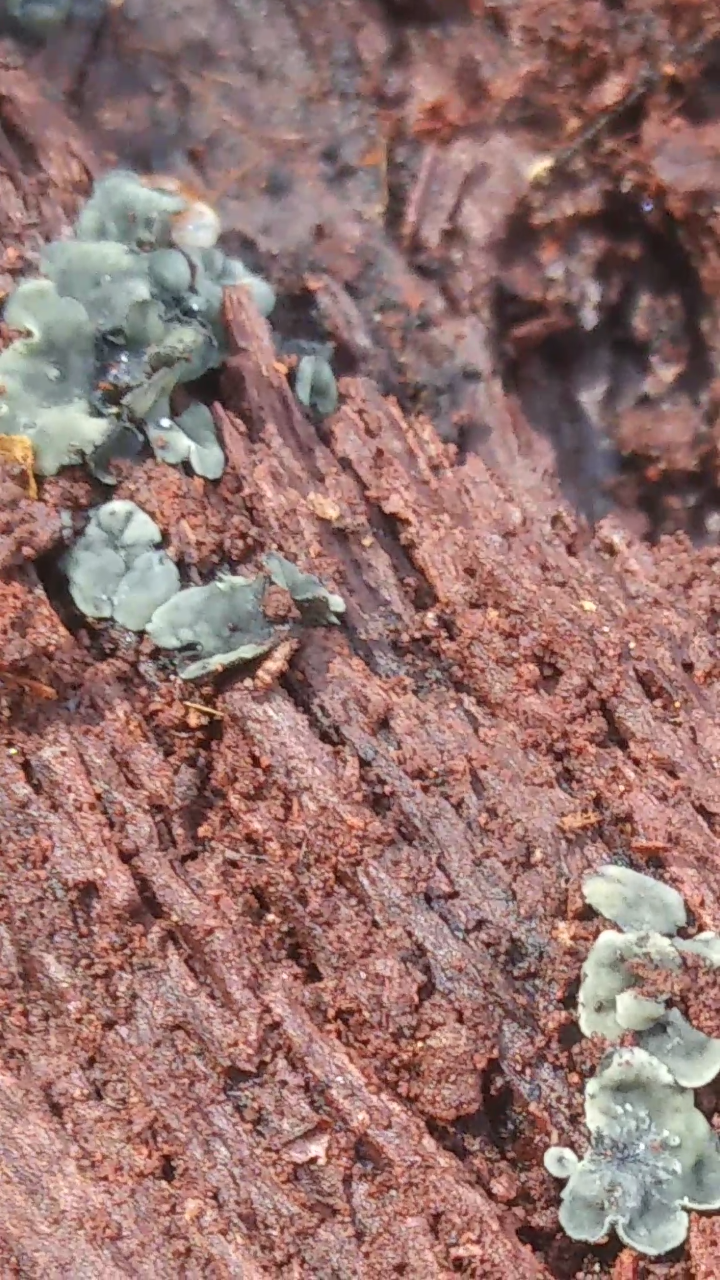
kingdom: Fungi
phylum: Ascomycota
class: Leotiomycetes
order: Helotiales
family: Chlorospleniaceae
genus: Chlorosplenium
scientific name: Chlorosplenium chlora
